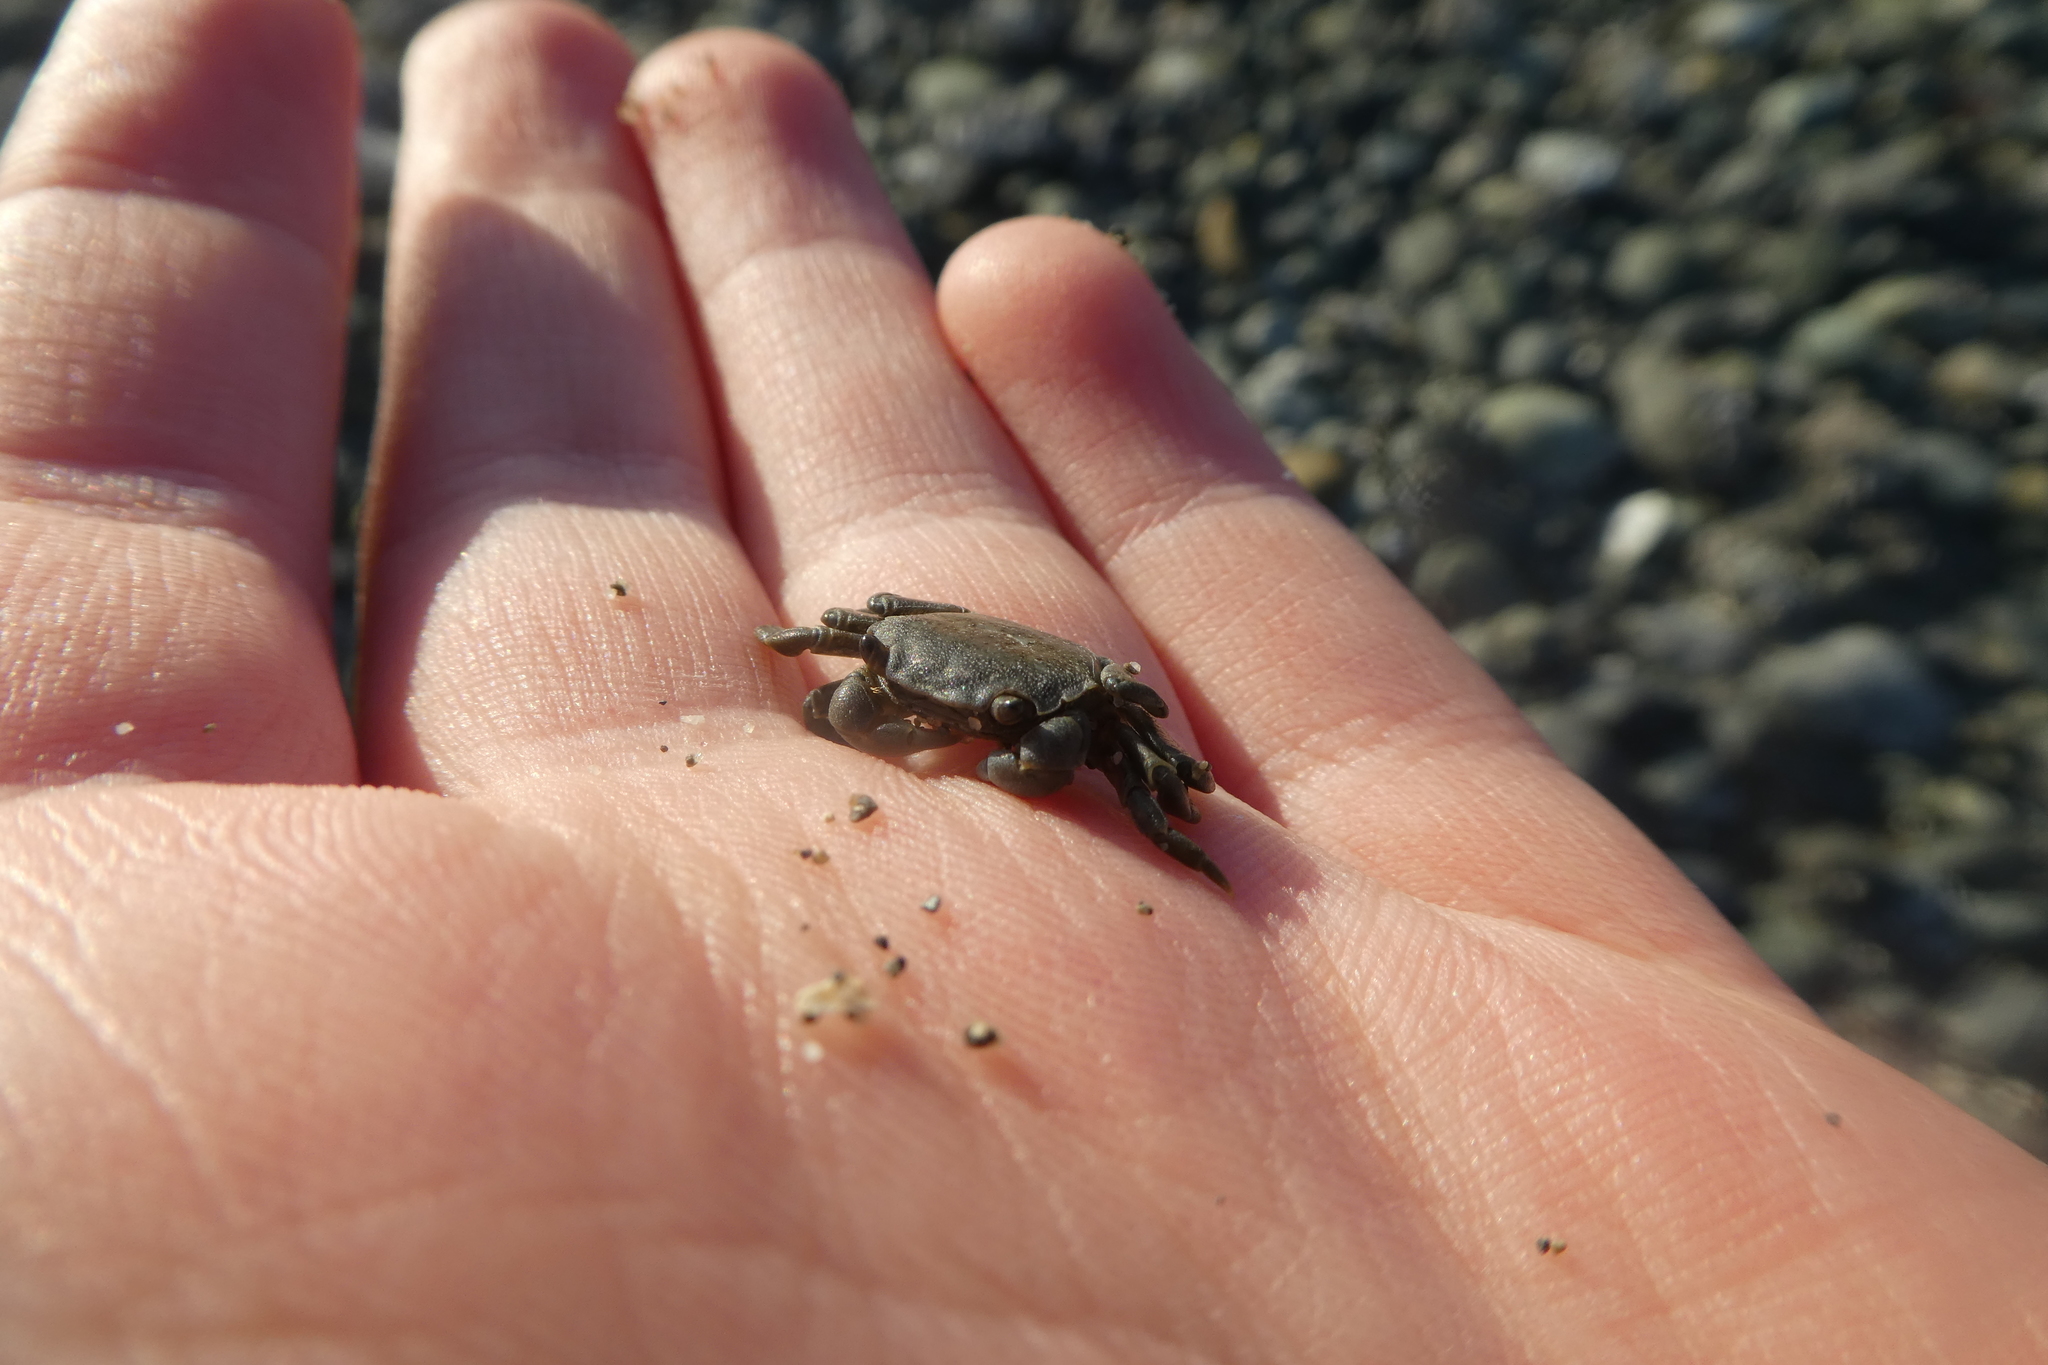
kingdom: Animalia
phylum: Arthropoda
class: Malacostraca
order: Decapoda
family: Varunidae
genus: Hemigrapsus
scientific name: Hemigrapsus nudus
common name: Purple shore crab
